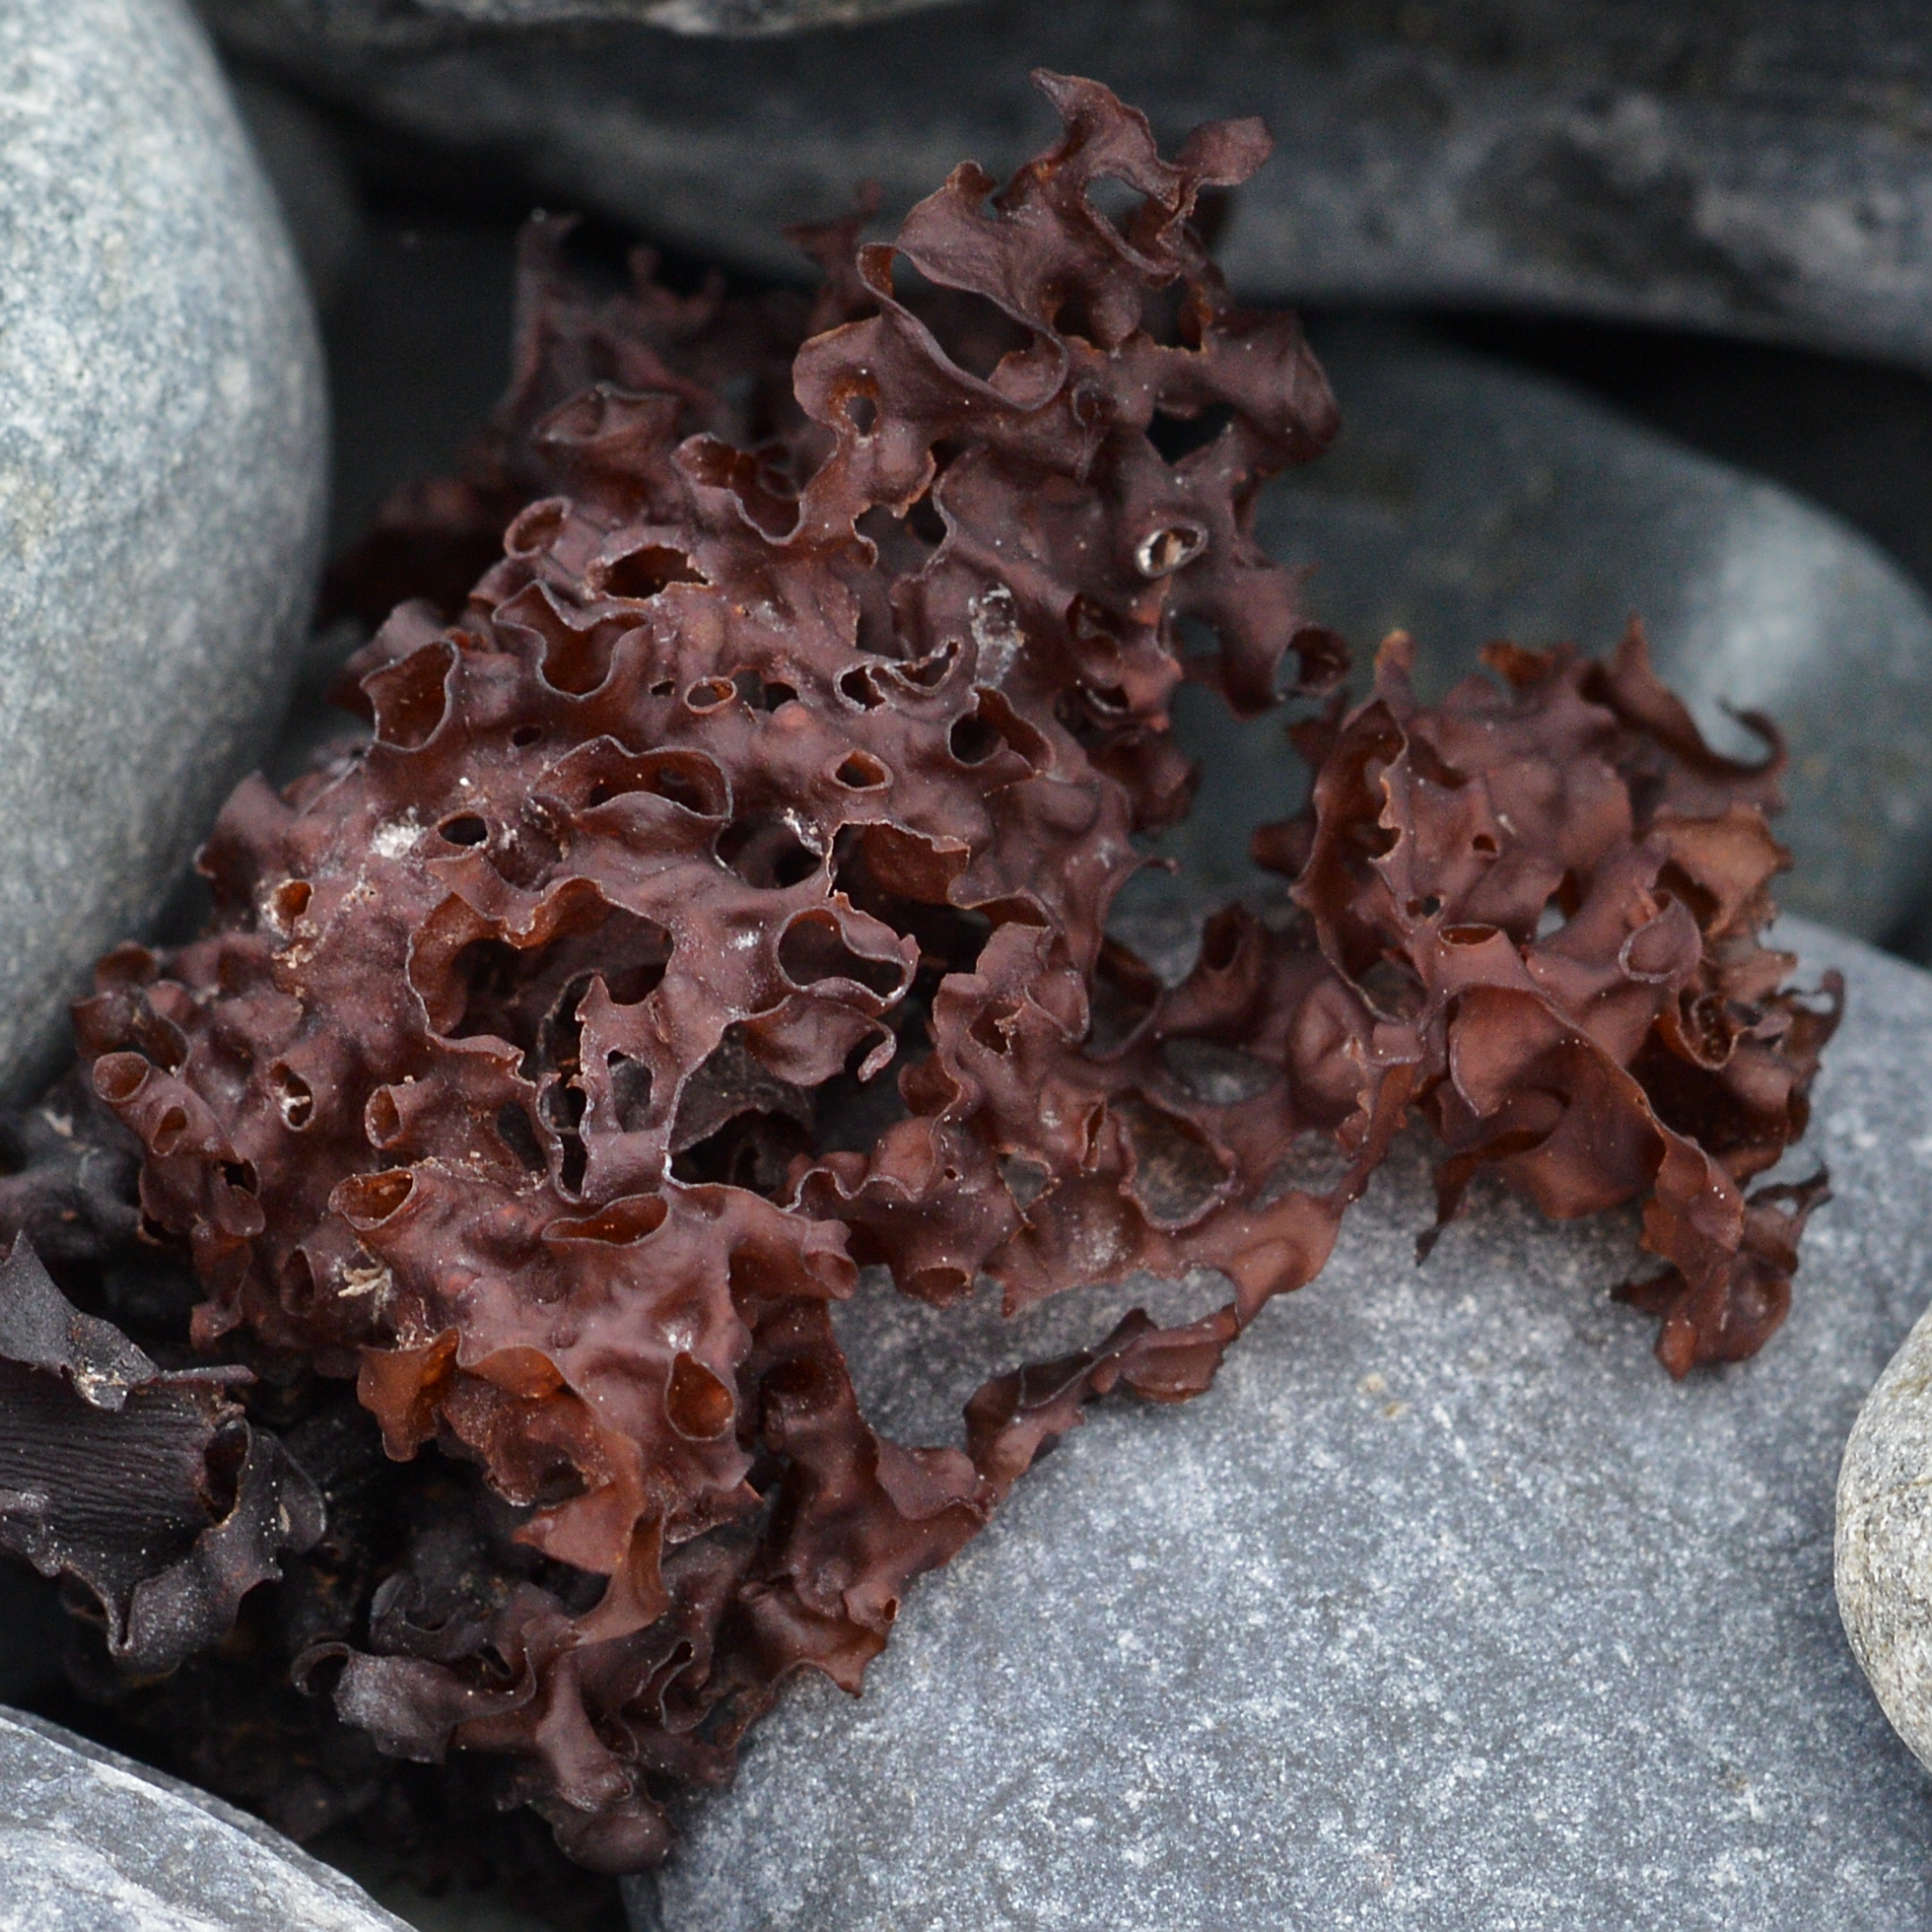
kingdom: Chromista
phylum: Ochrophyta
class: Phaeophyceae
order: Laminariales
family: Costariaceae
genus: Agarum
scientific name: Agarum clathratum
